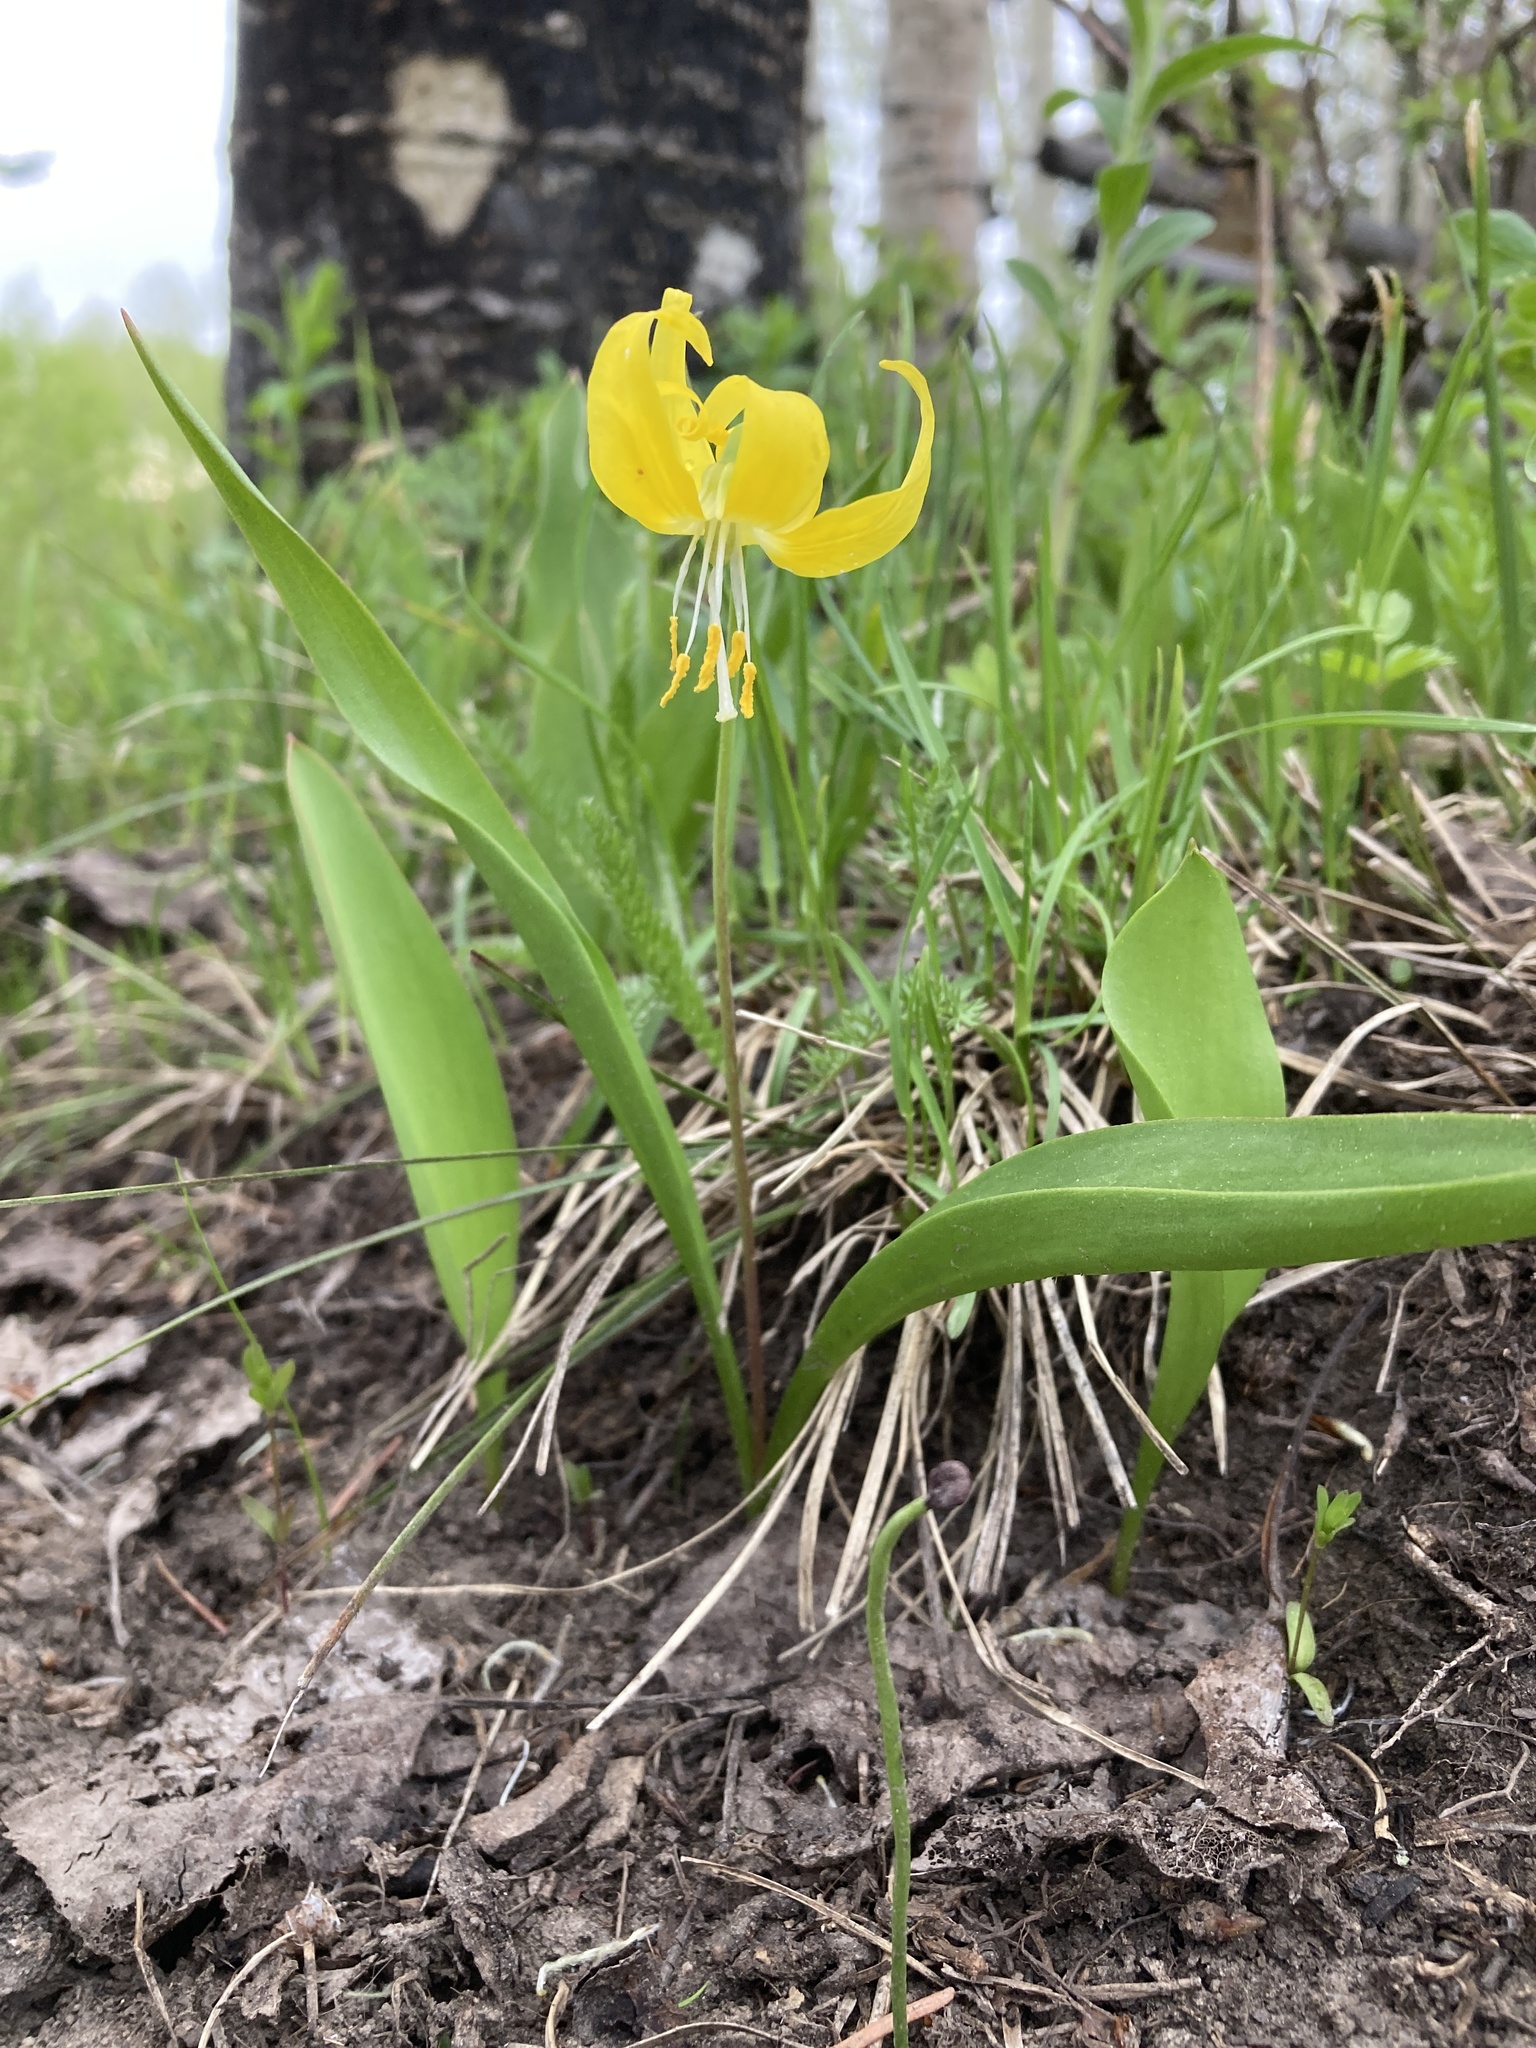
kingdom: Plantae
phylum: Tracheophyta
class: Liliopsida
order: Liliales
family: Liliaceae
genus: Erythronium
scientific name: Erythronium grandiflorum
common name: Avalanche-lily
